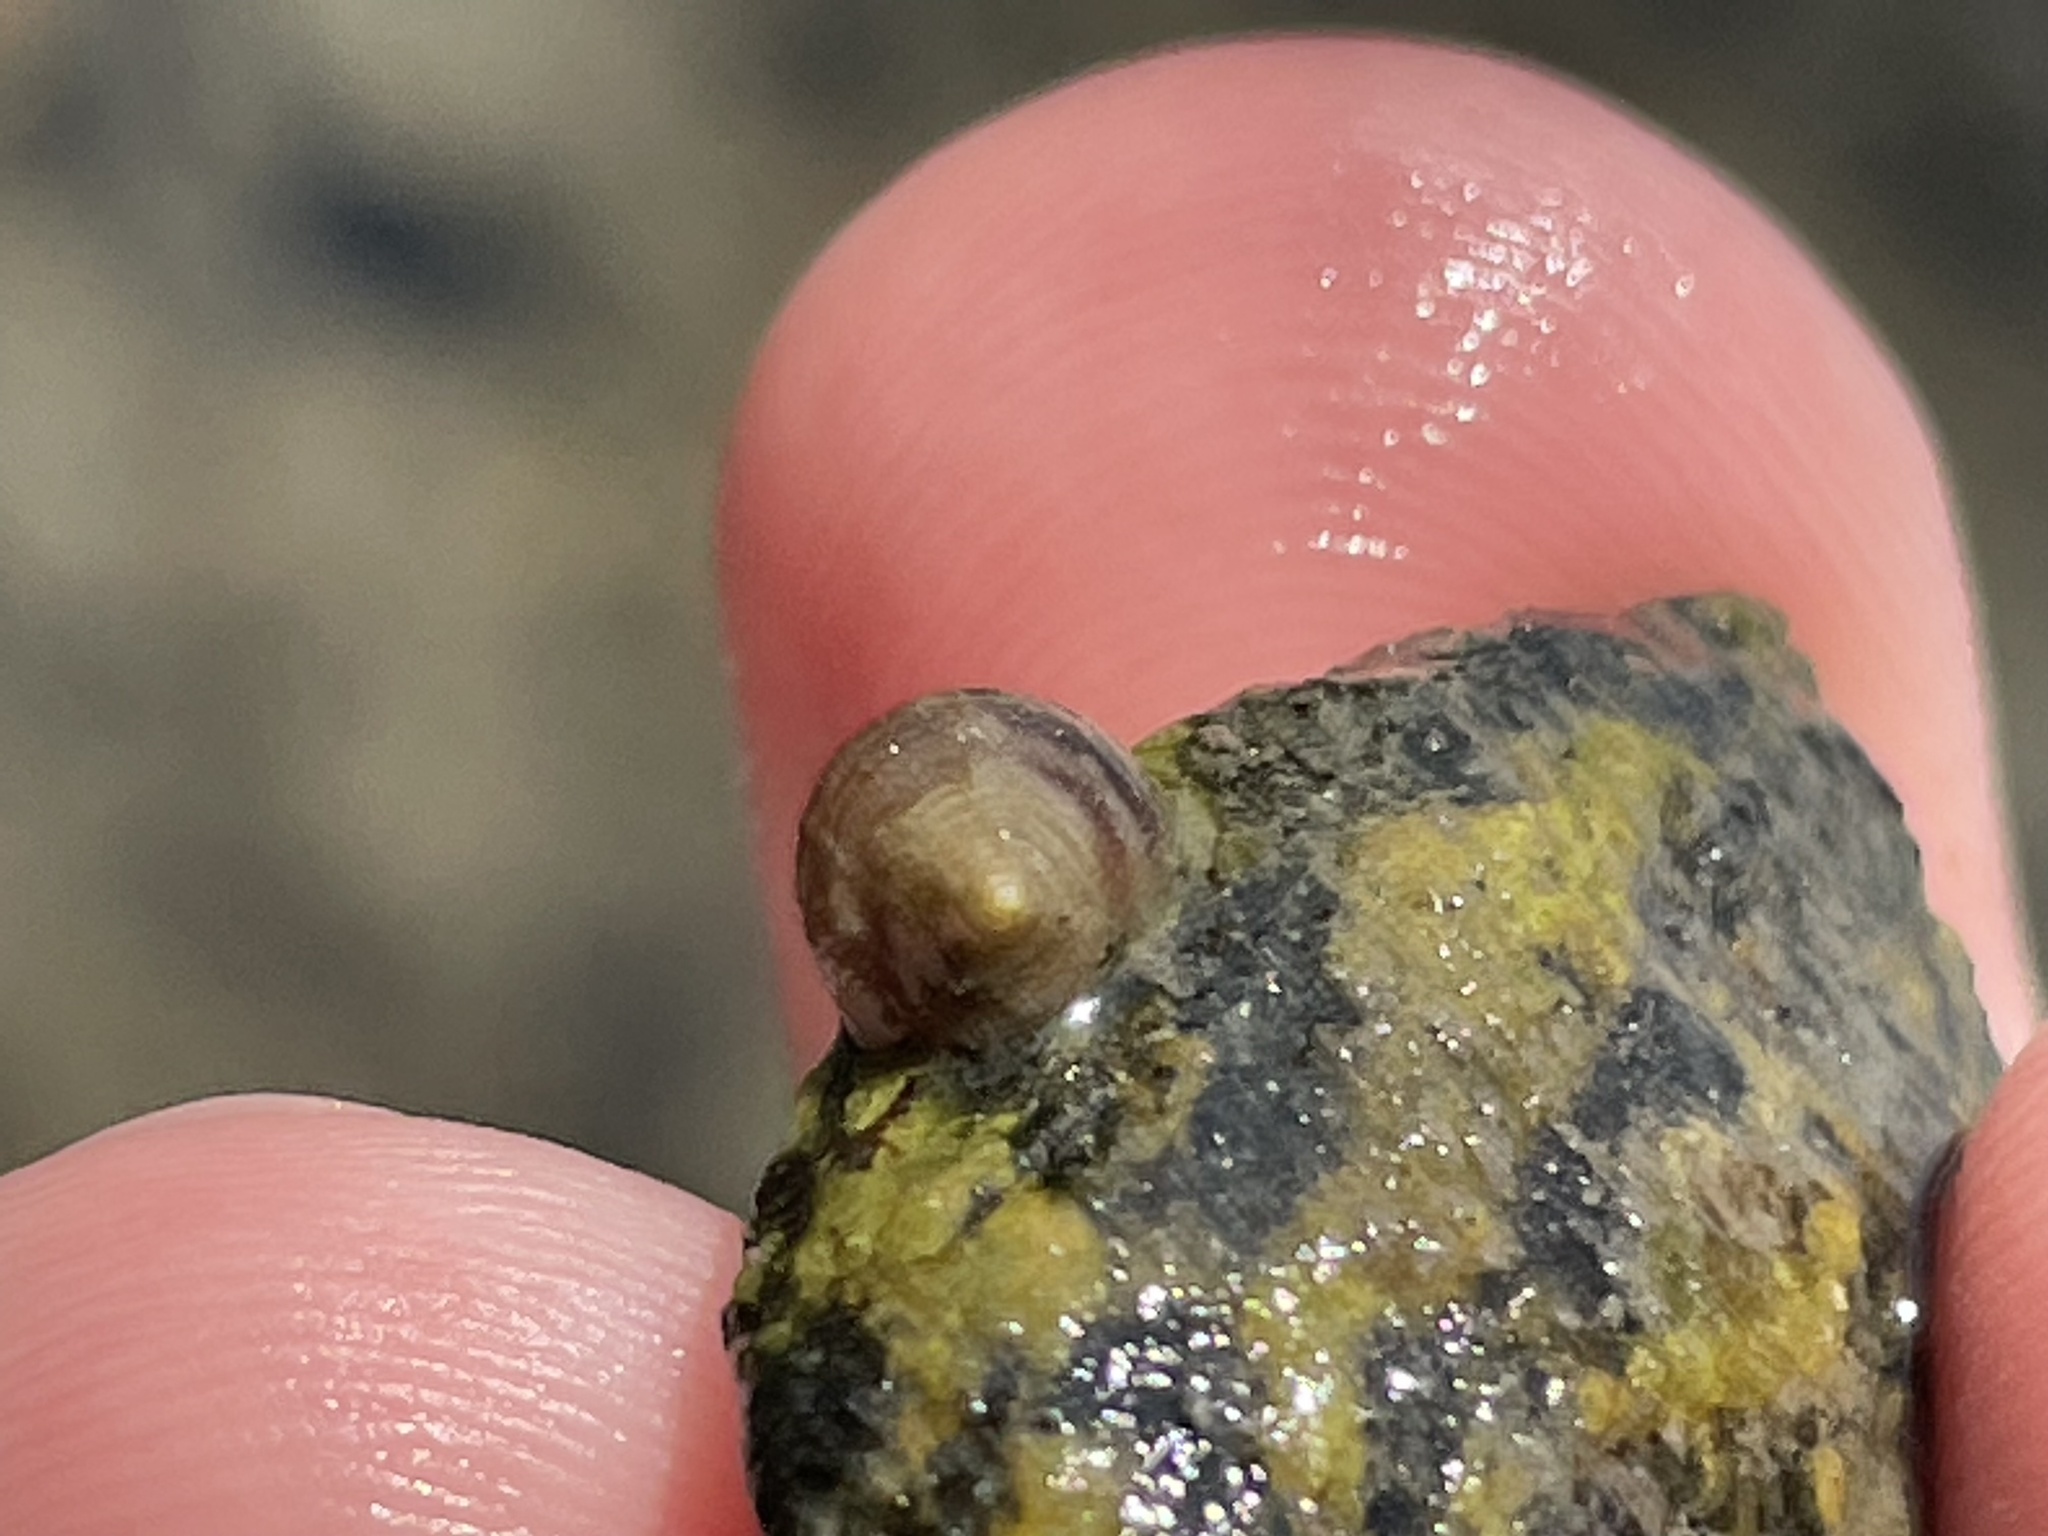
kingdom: Animalia
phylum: Mollusca
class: Gastropoda
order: Littorinimorpha
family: Littorinidae
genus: Littorina
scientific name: Littorina littorea
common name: Common periwinkle
